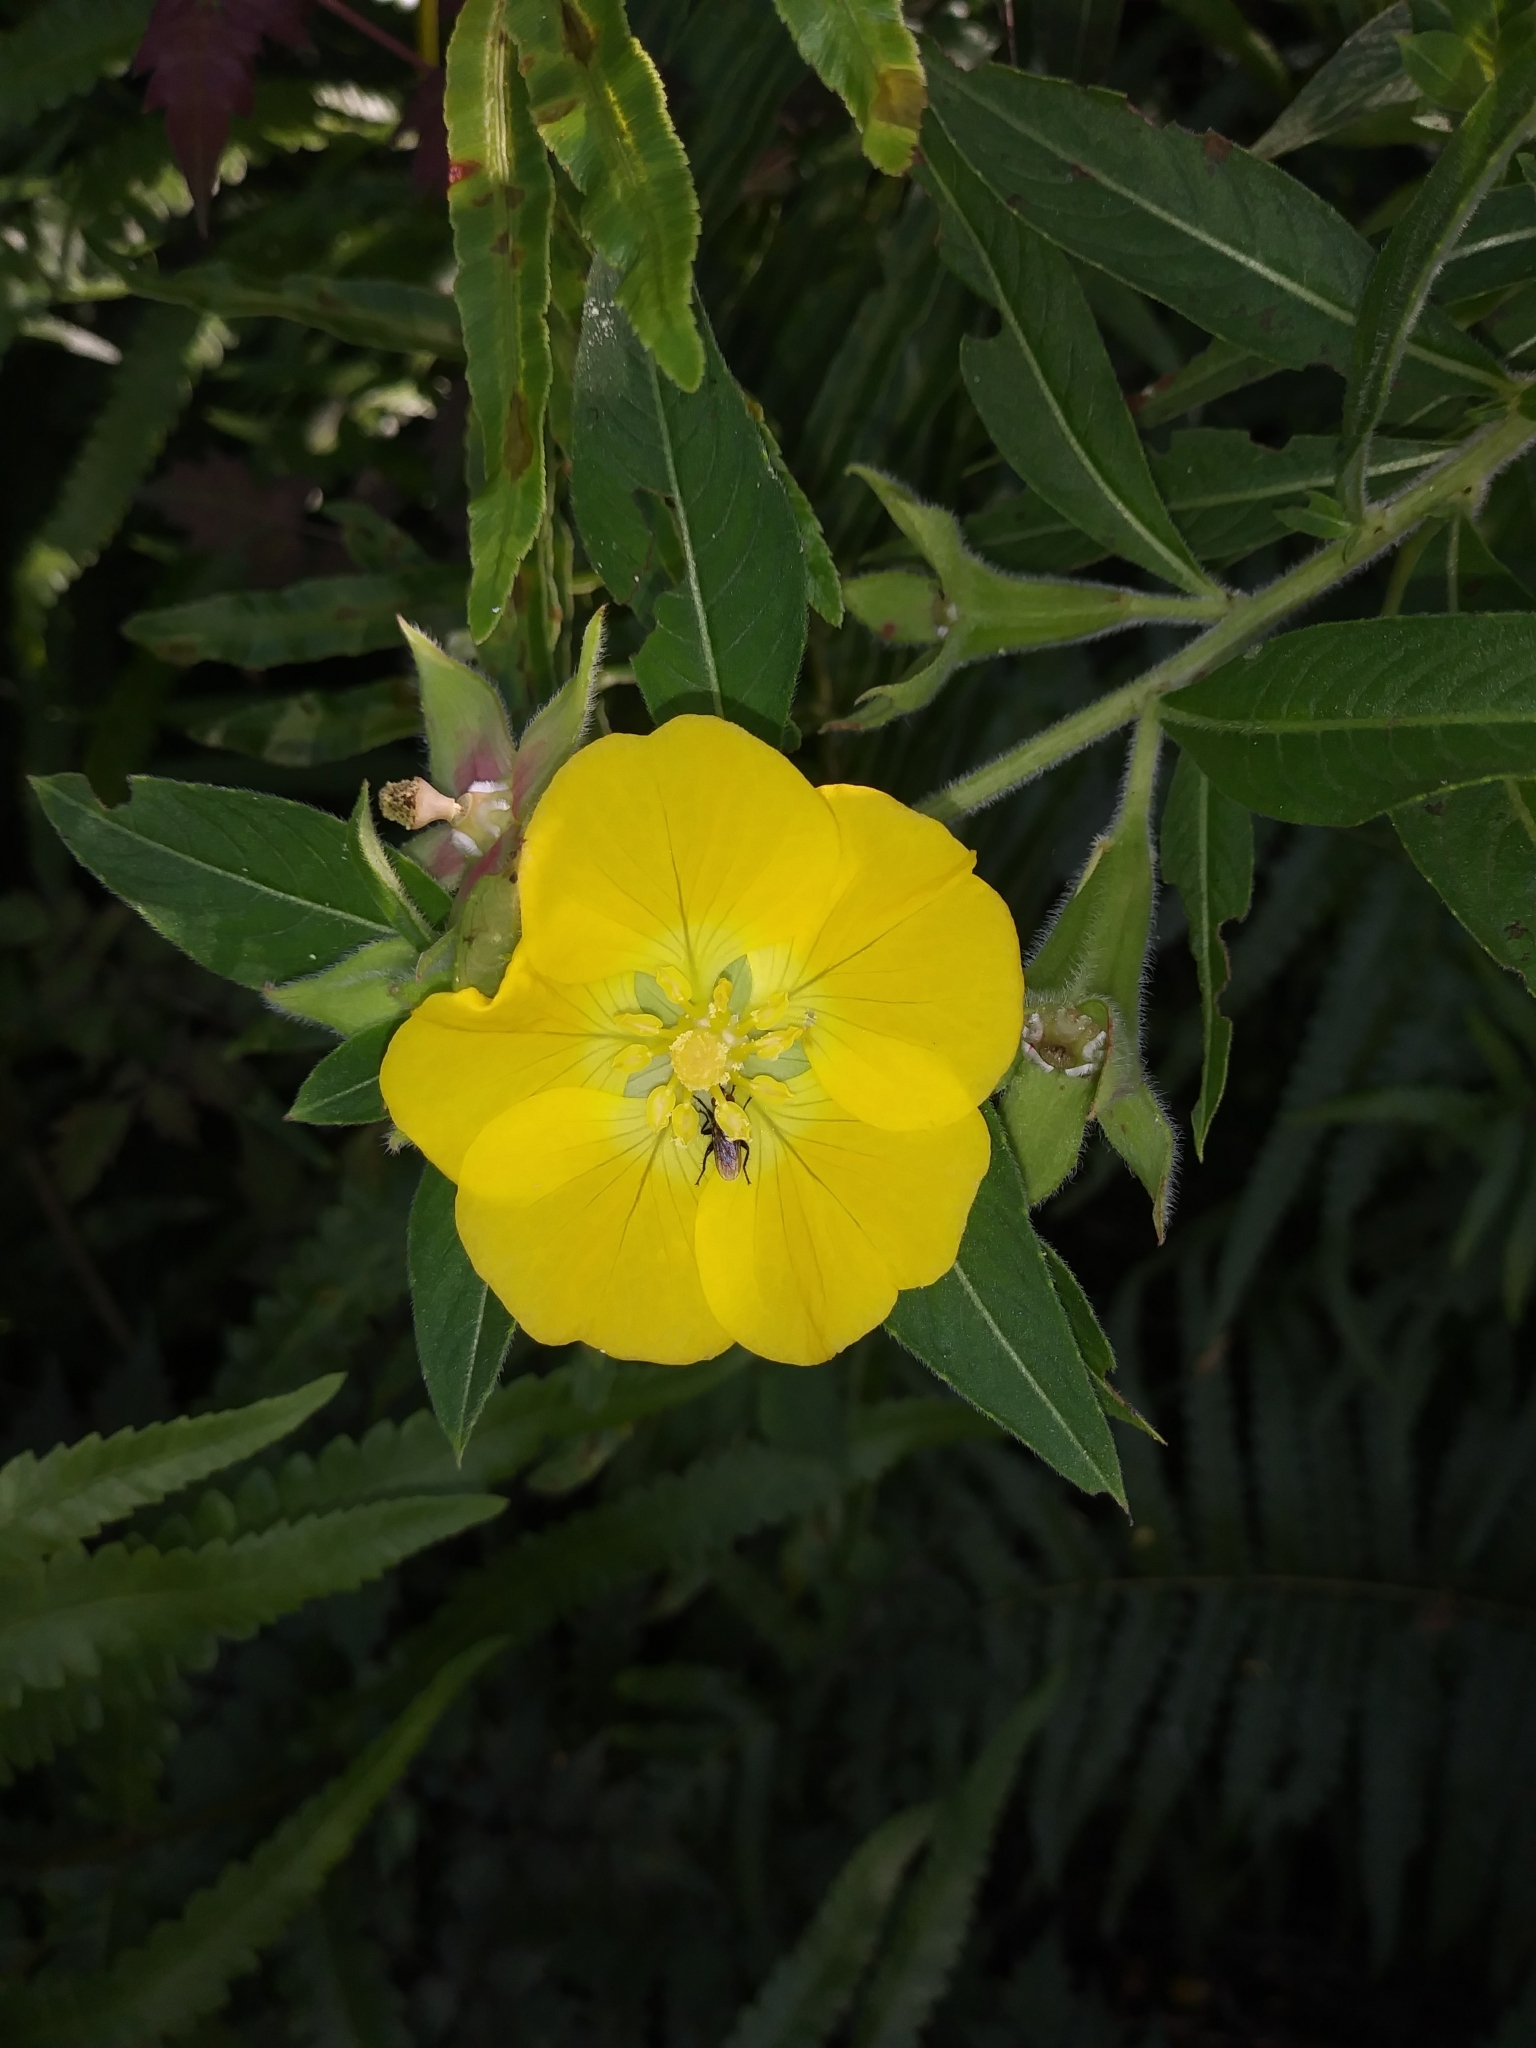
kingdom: Plantae
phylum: Tracheophyta
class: Magnoliopsida
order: Myrtales
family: Onagraceae
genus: Ludwigia
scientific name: Ludwigia octovalvis
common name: Water-primrose
